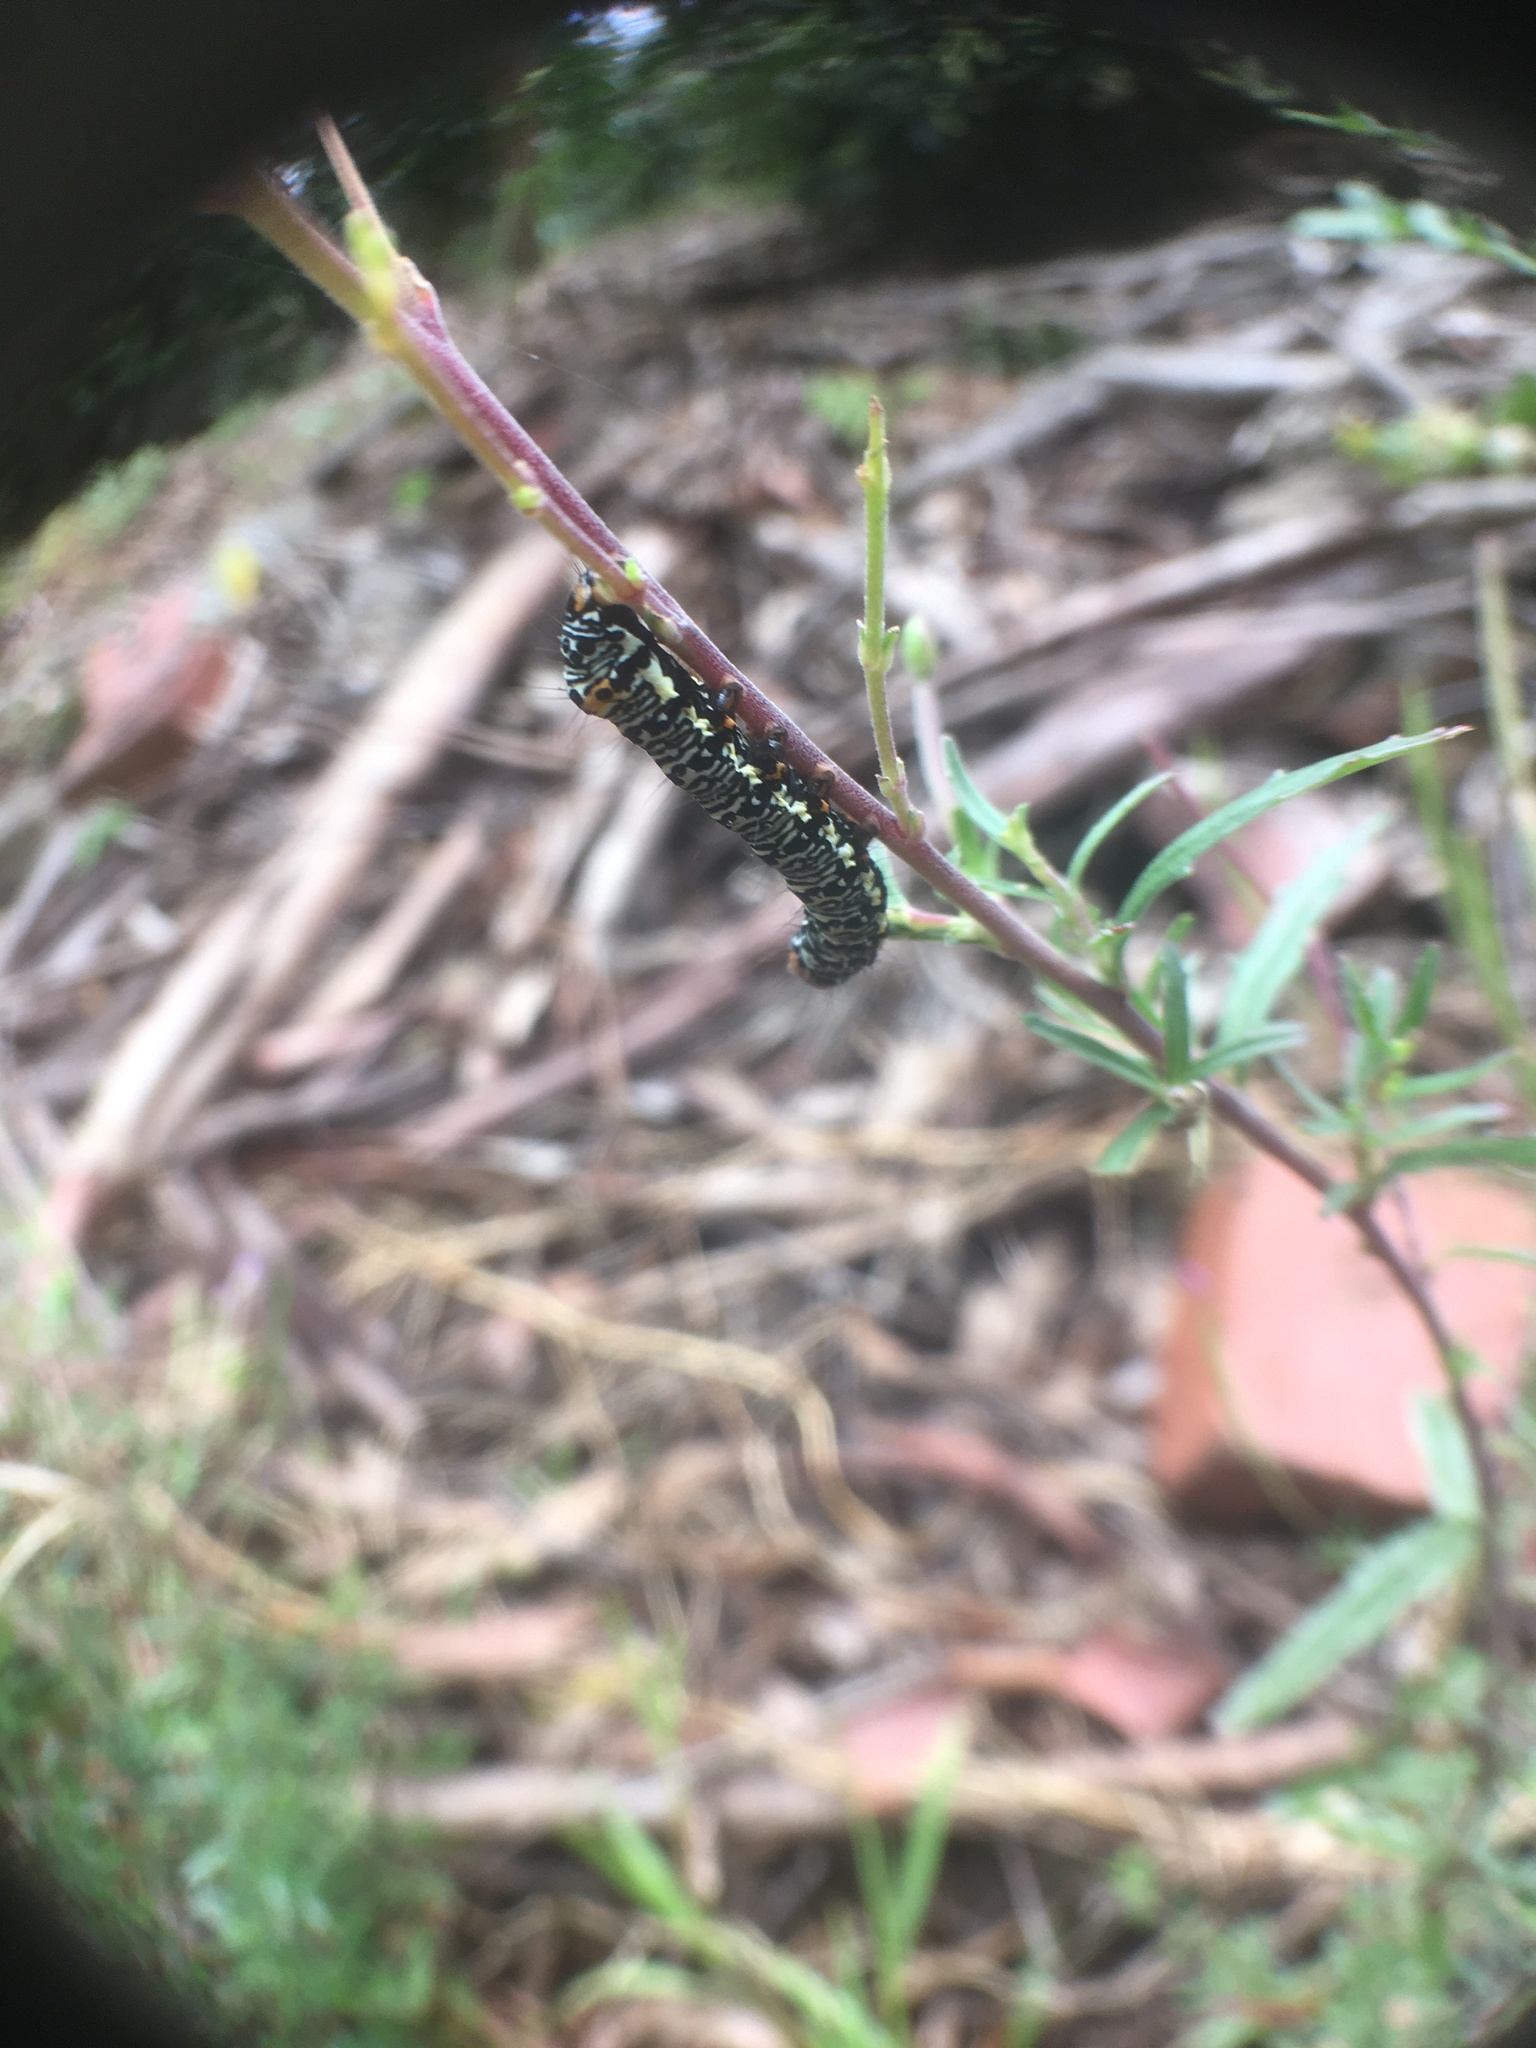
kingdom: Animalia
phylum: Arthropoda
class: Insecta
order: Lepidoptera
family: Noctuidae
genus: Phalaenoides
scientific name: Phalaenoides tristifica
